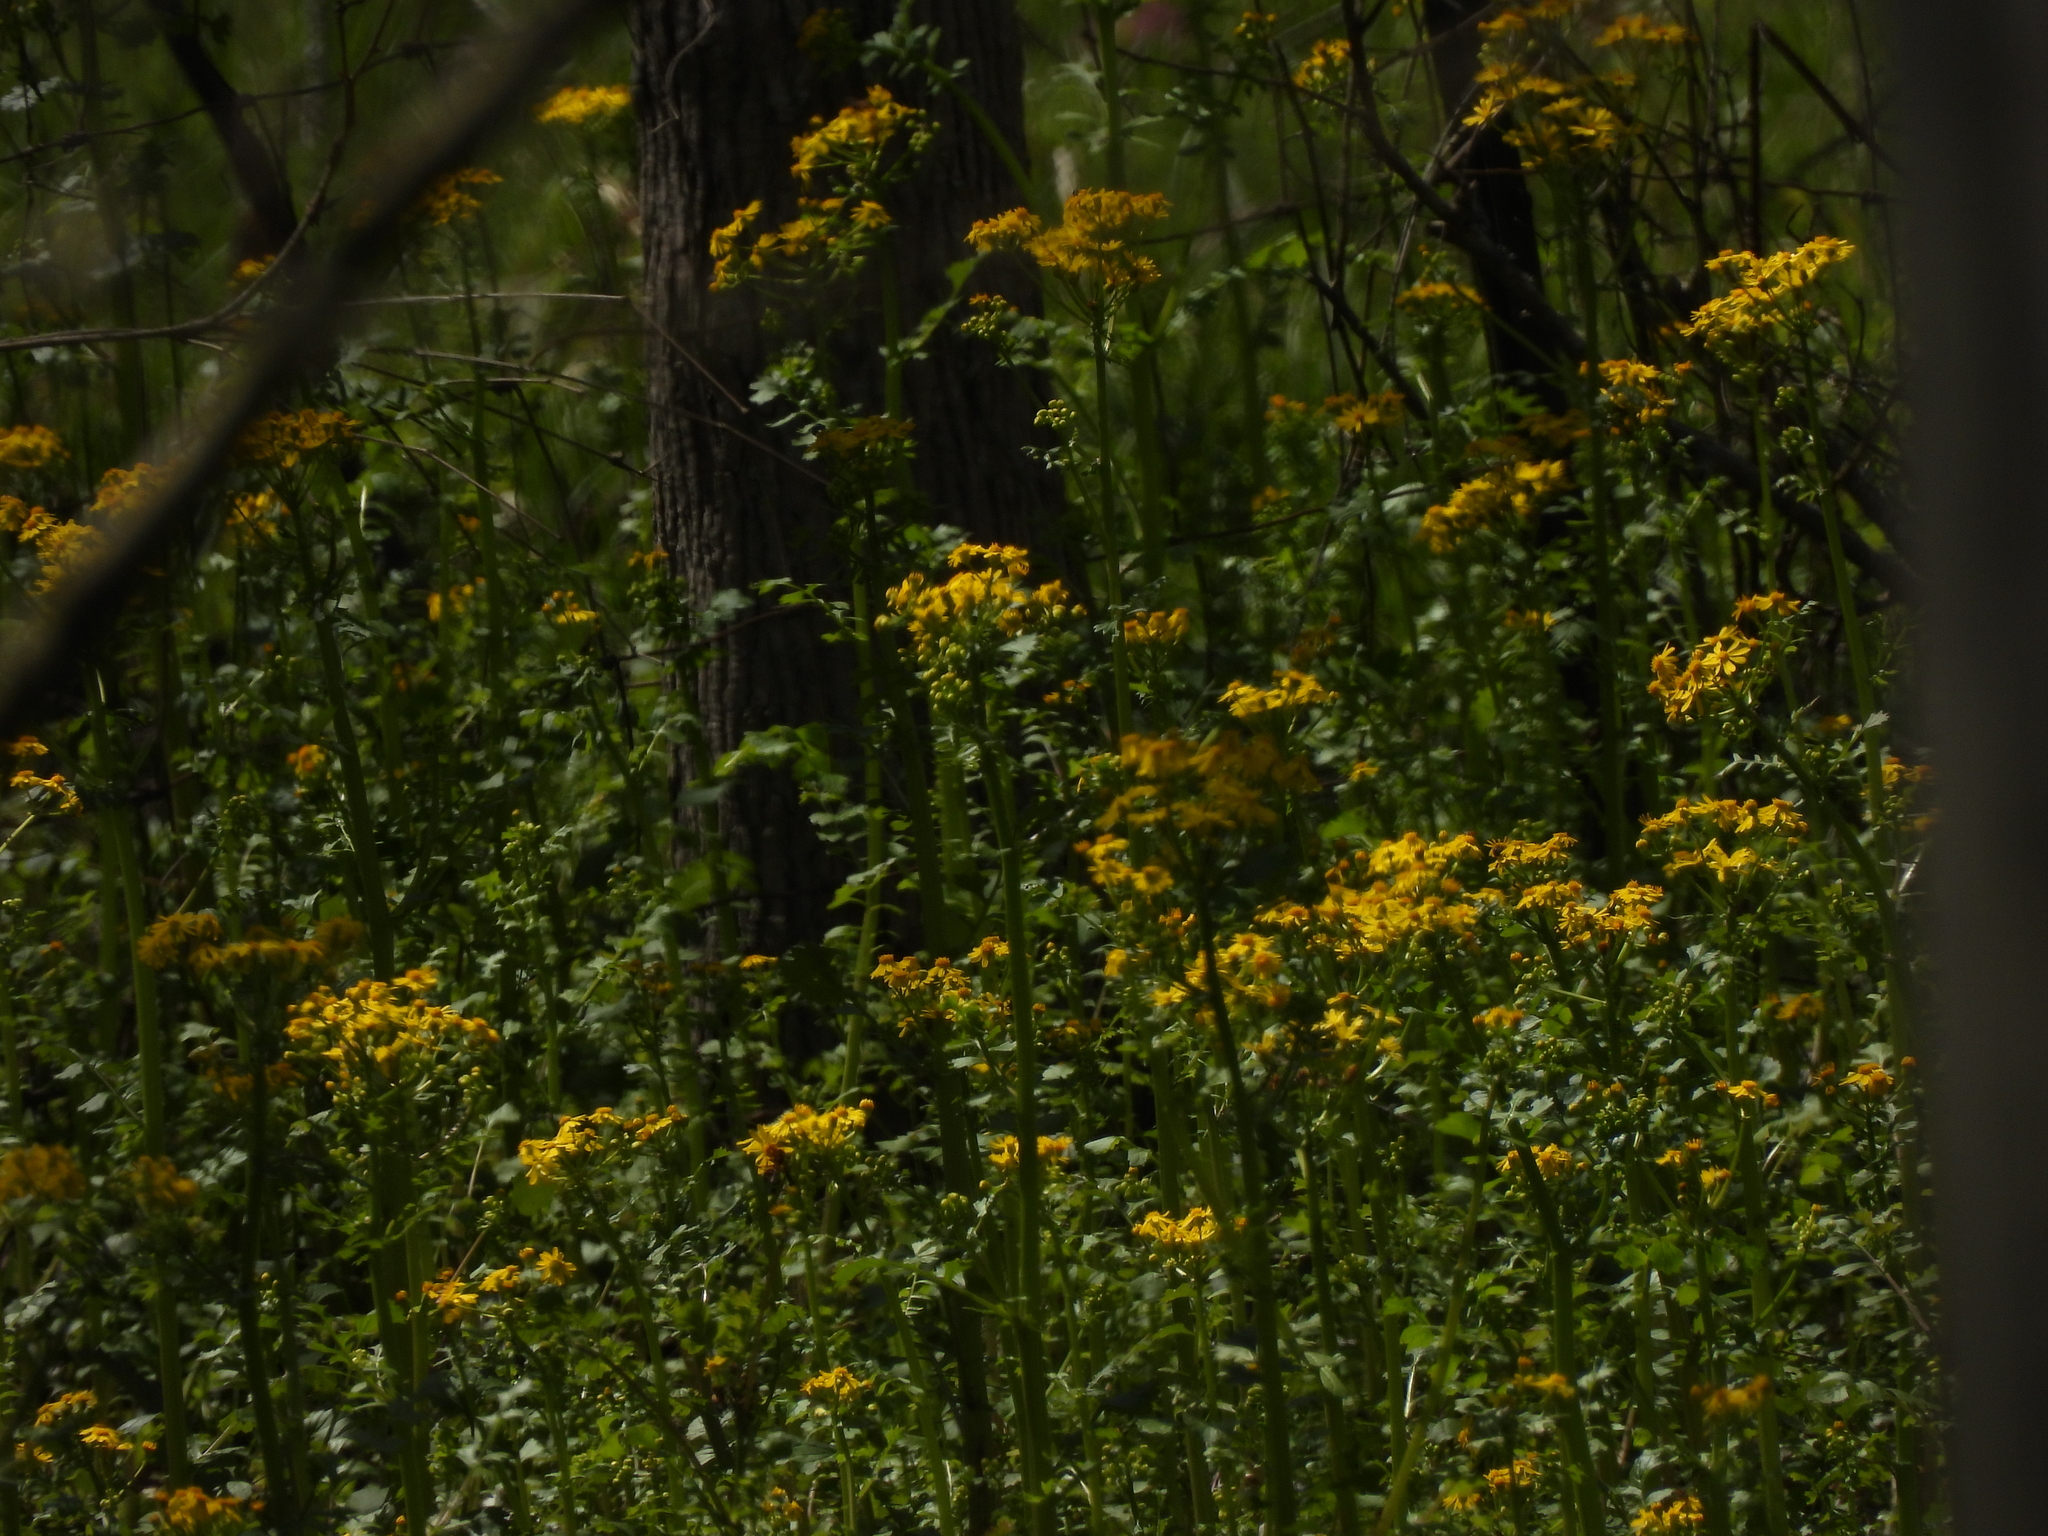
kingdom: Plantae
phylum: Tracheophyta
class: Magnoliopsida
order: Asterales
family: Asteraceae
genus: Packera
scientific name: Packera glabella
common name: Butterweed
